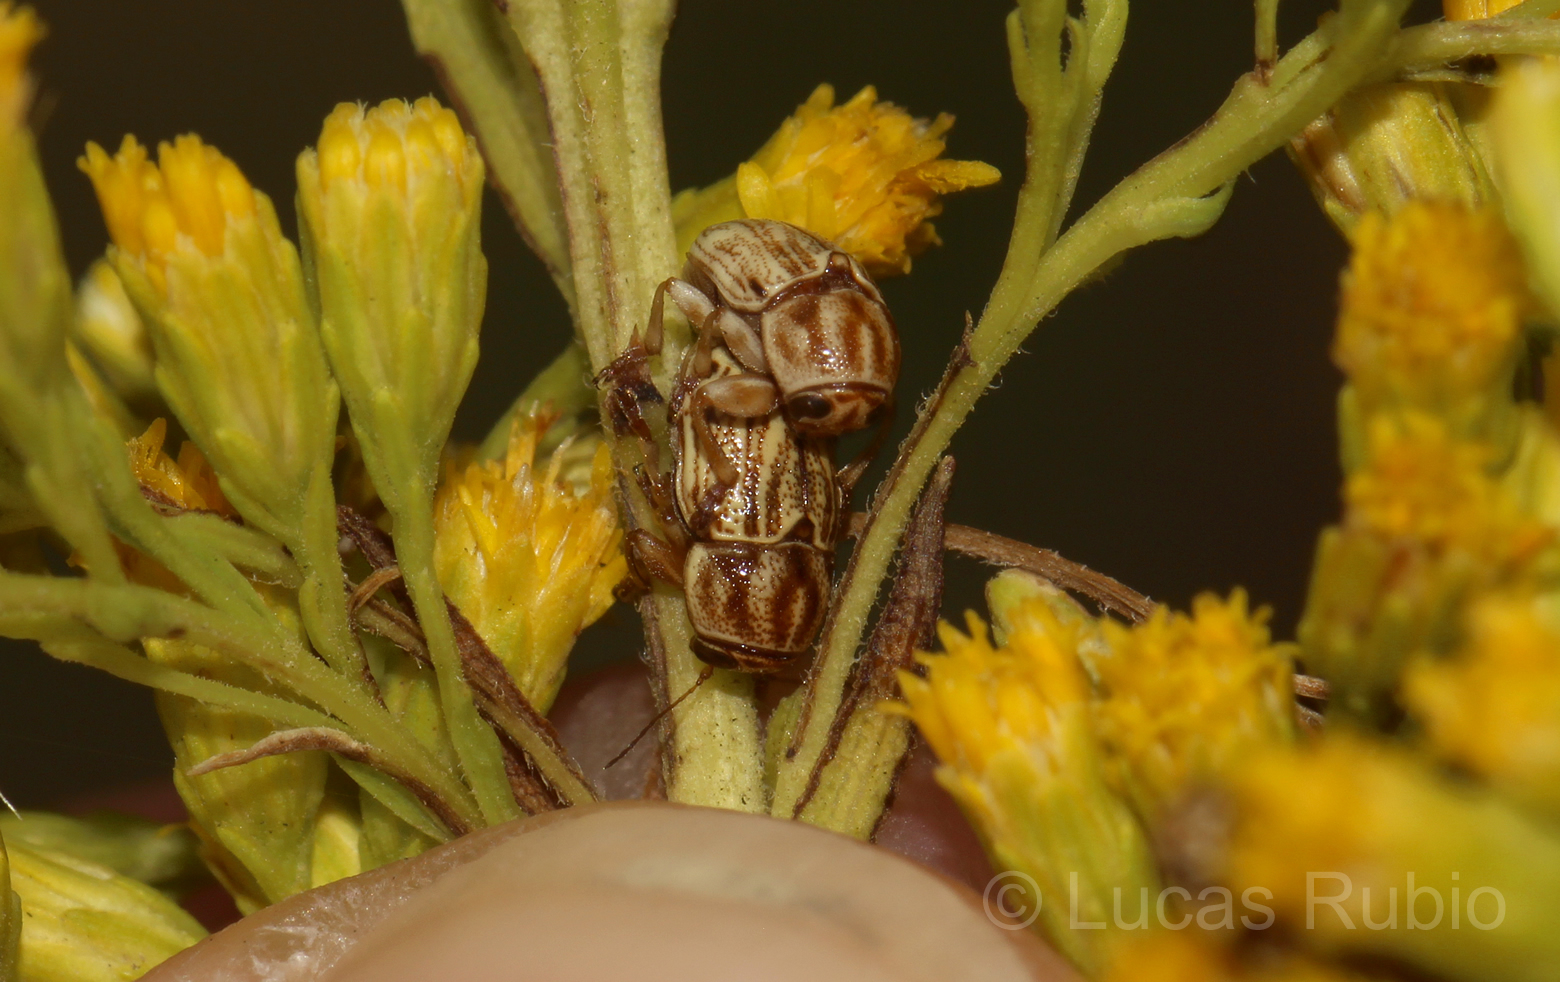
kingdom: Animalia
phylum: Arthropoda
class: Insecta
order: Coleoptera
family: Chrysomelidae
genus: Pachybrachis
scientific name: Pachybrachis
